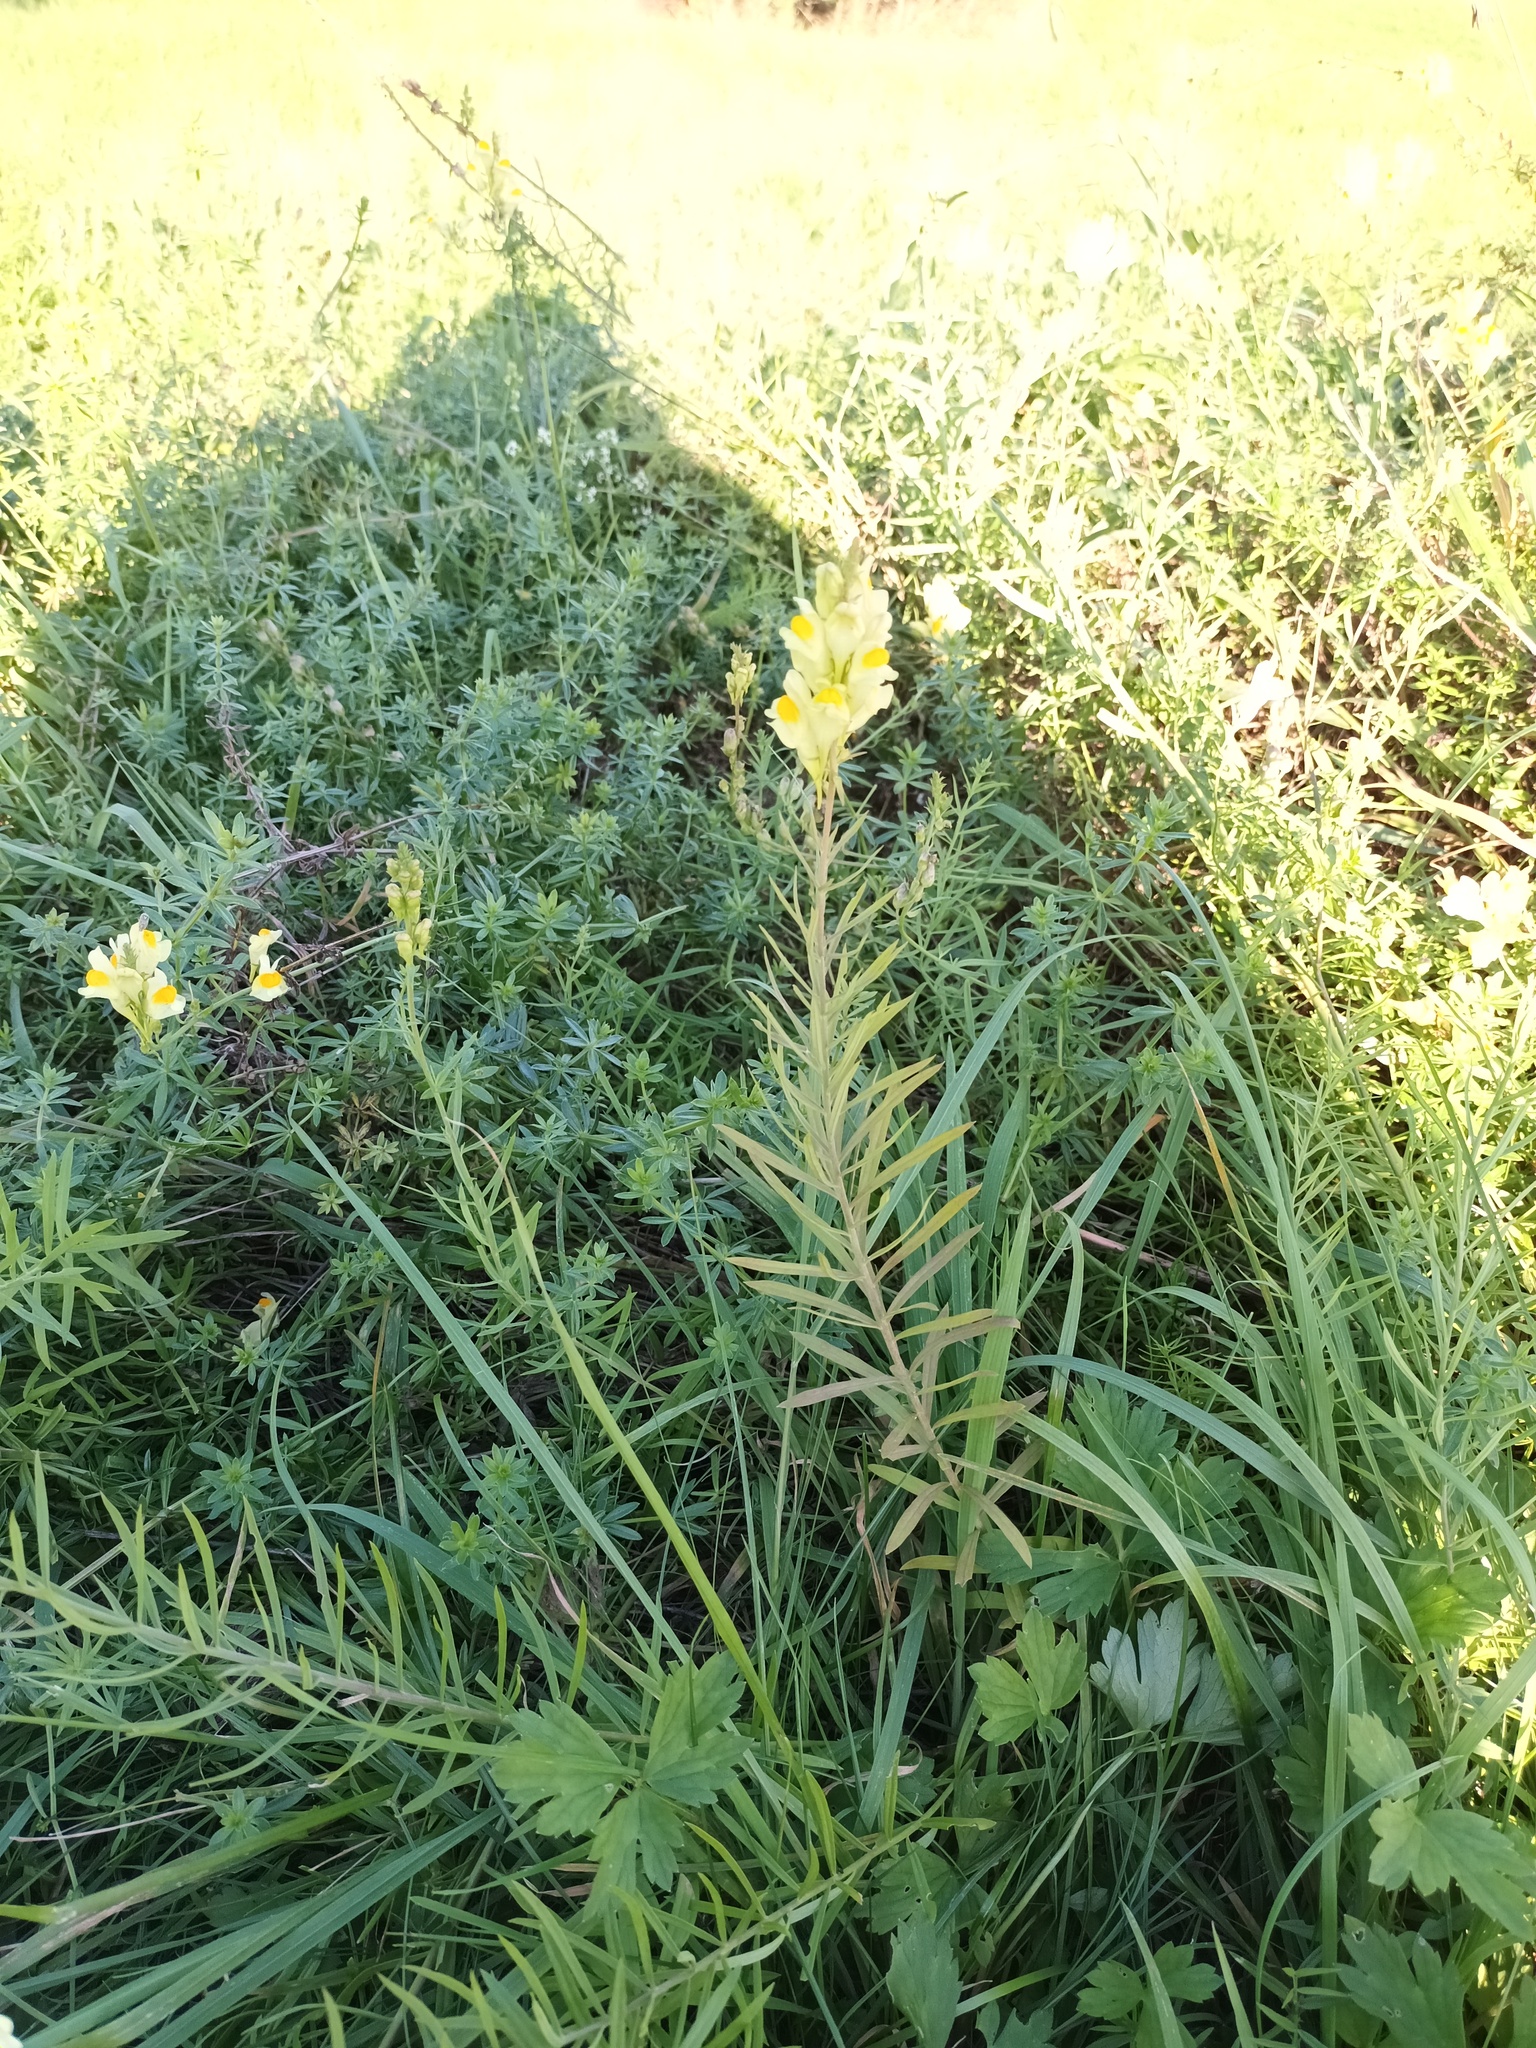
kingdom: Plantae
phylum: Tracheophyta
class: Magnoliopsida
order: Lamiales
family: Plantaginaceae
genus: Linaria
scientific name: Linaria vulgaris
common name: Butter and eggs
